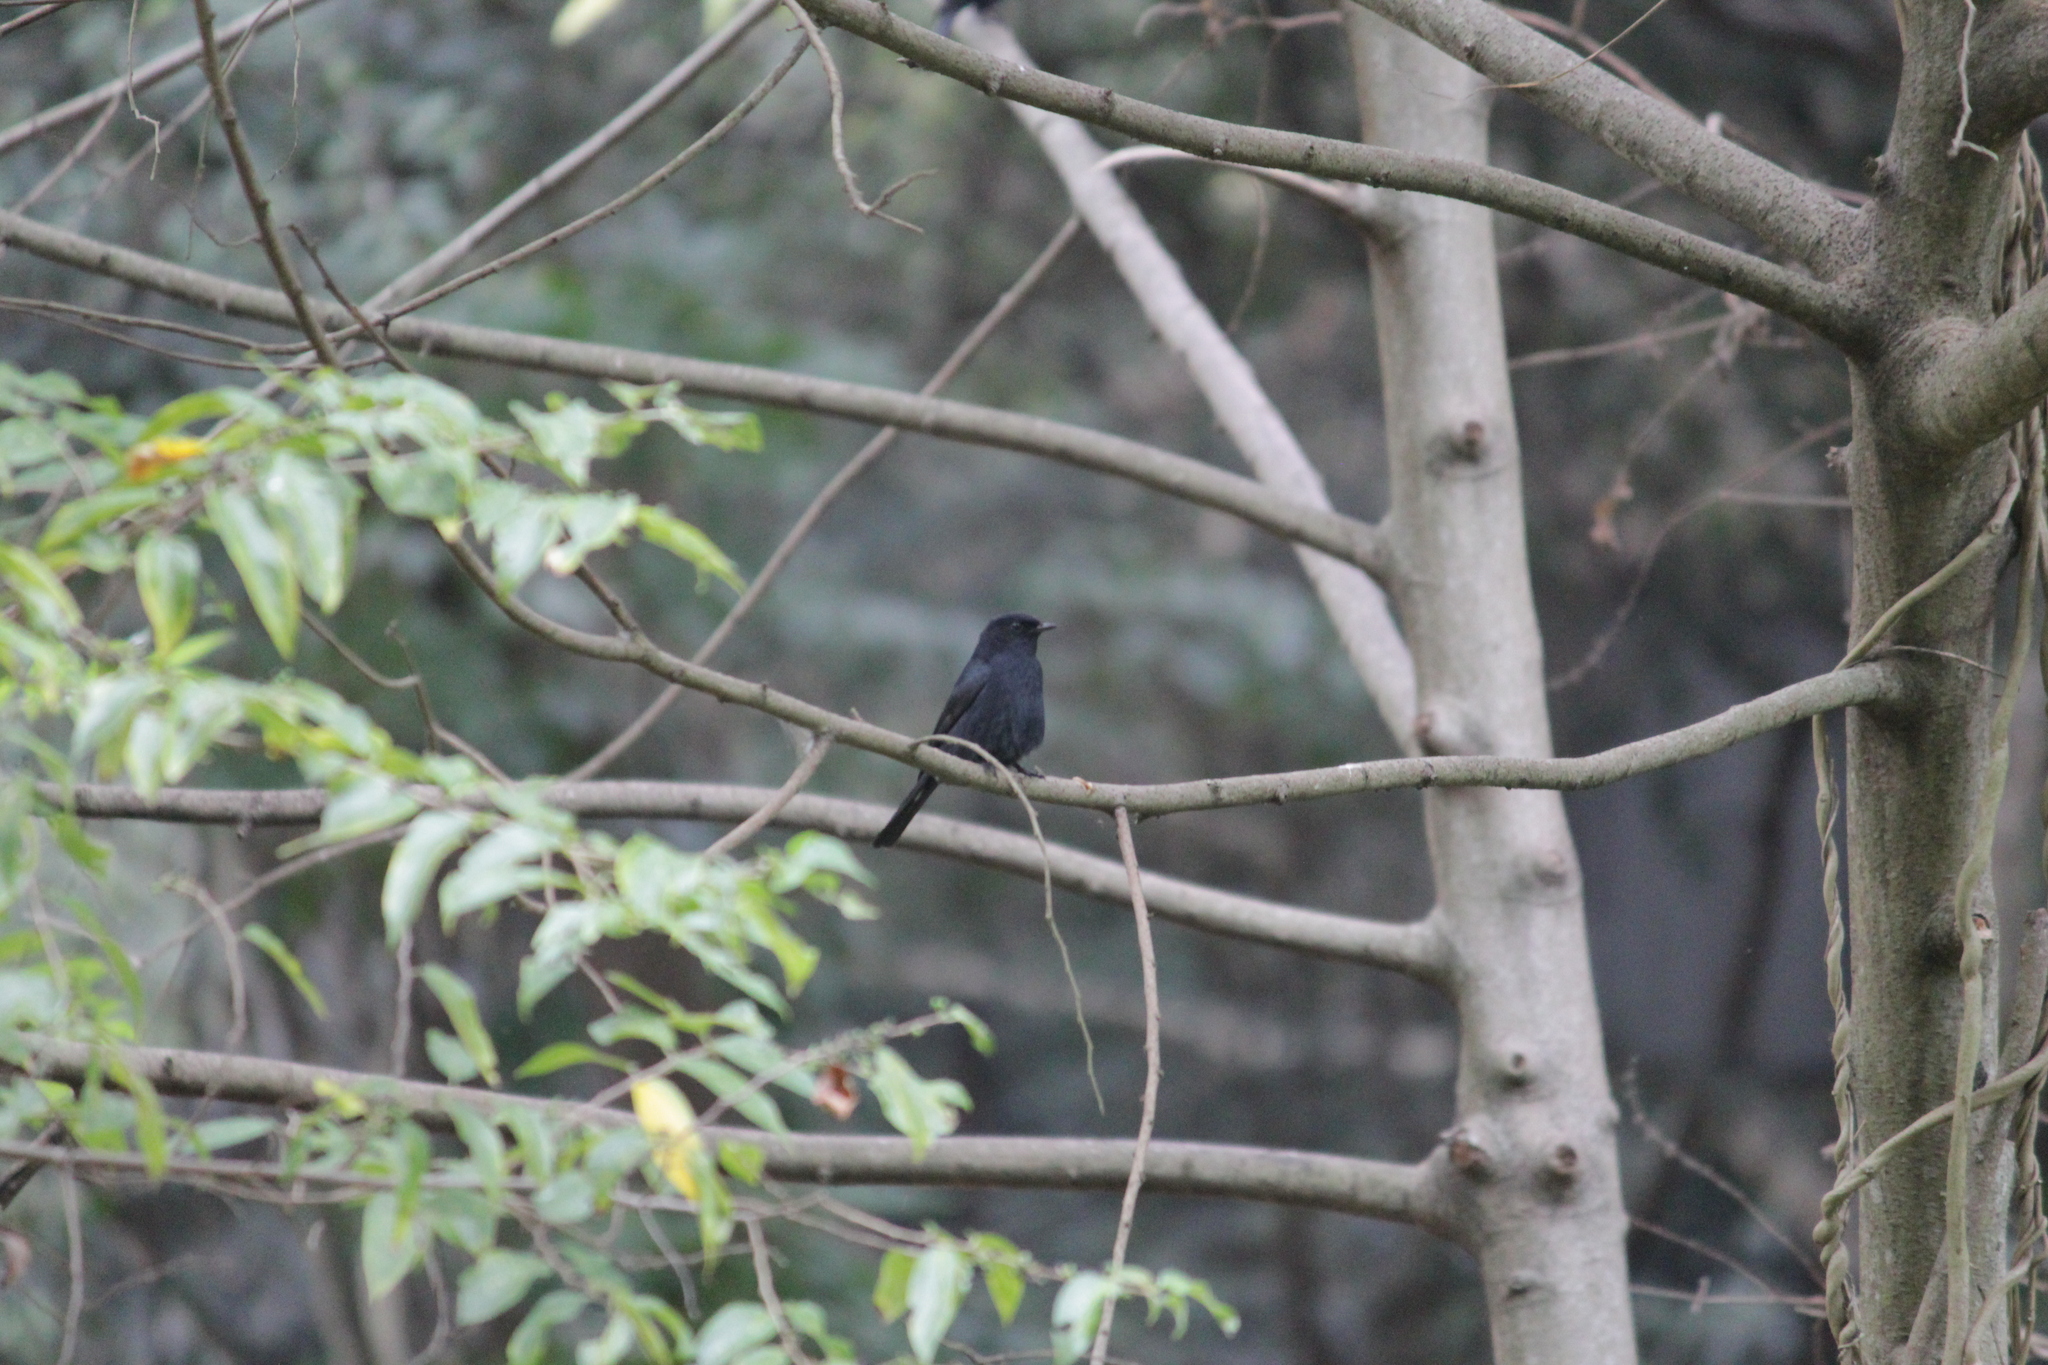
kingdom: Animalia
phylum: Chordata
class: Aves
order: Passeriformes
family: Muscicapidae
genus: Melaenornis
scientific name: Melaenornis pammelaina
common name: Southern black flycatcher
